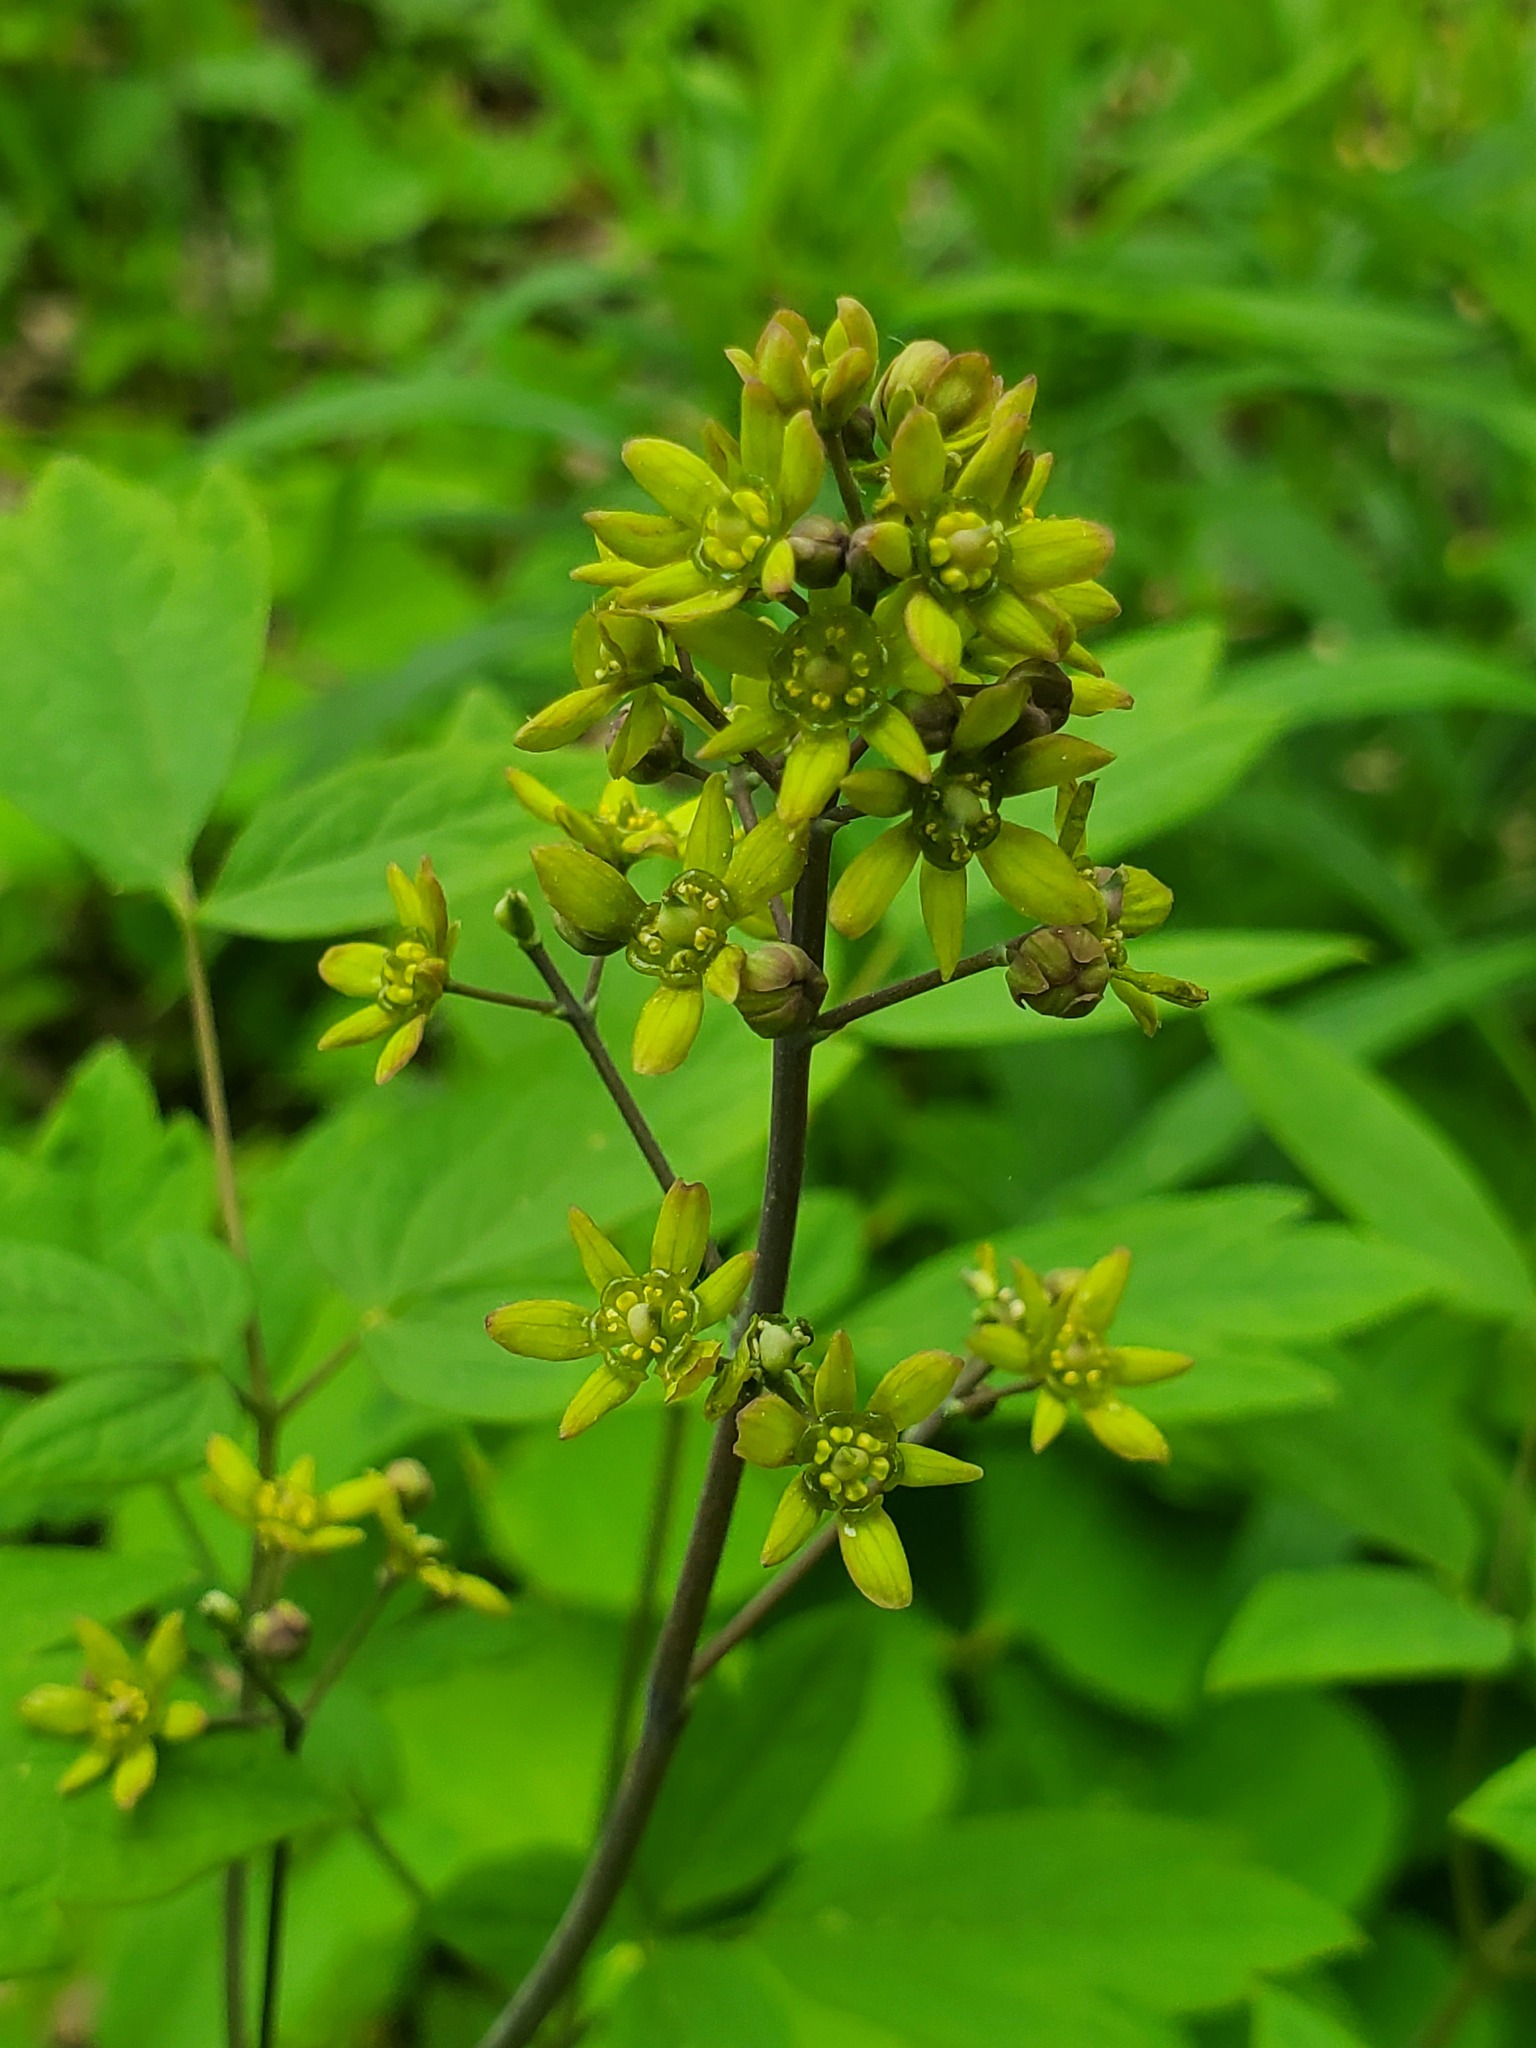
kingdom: Plantae
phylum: Tracheophyta
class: Magnoliopsida
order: Ranunculales
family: Berberidaceae
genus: Caulophyllum
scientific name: Caulophyllum thalictroides
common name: Blue cohosh
